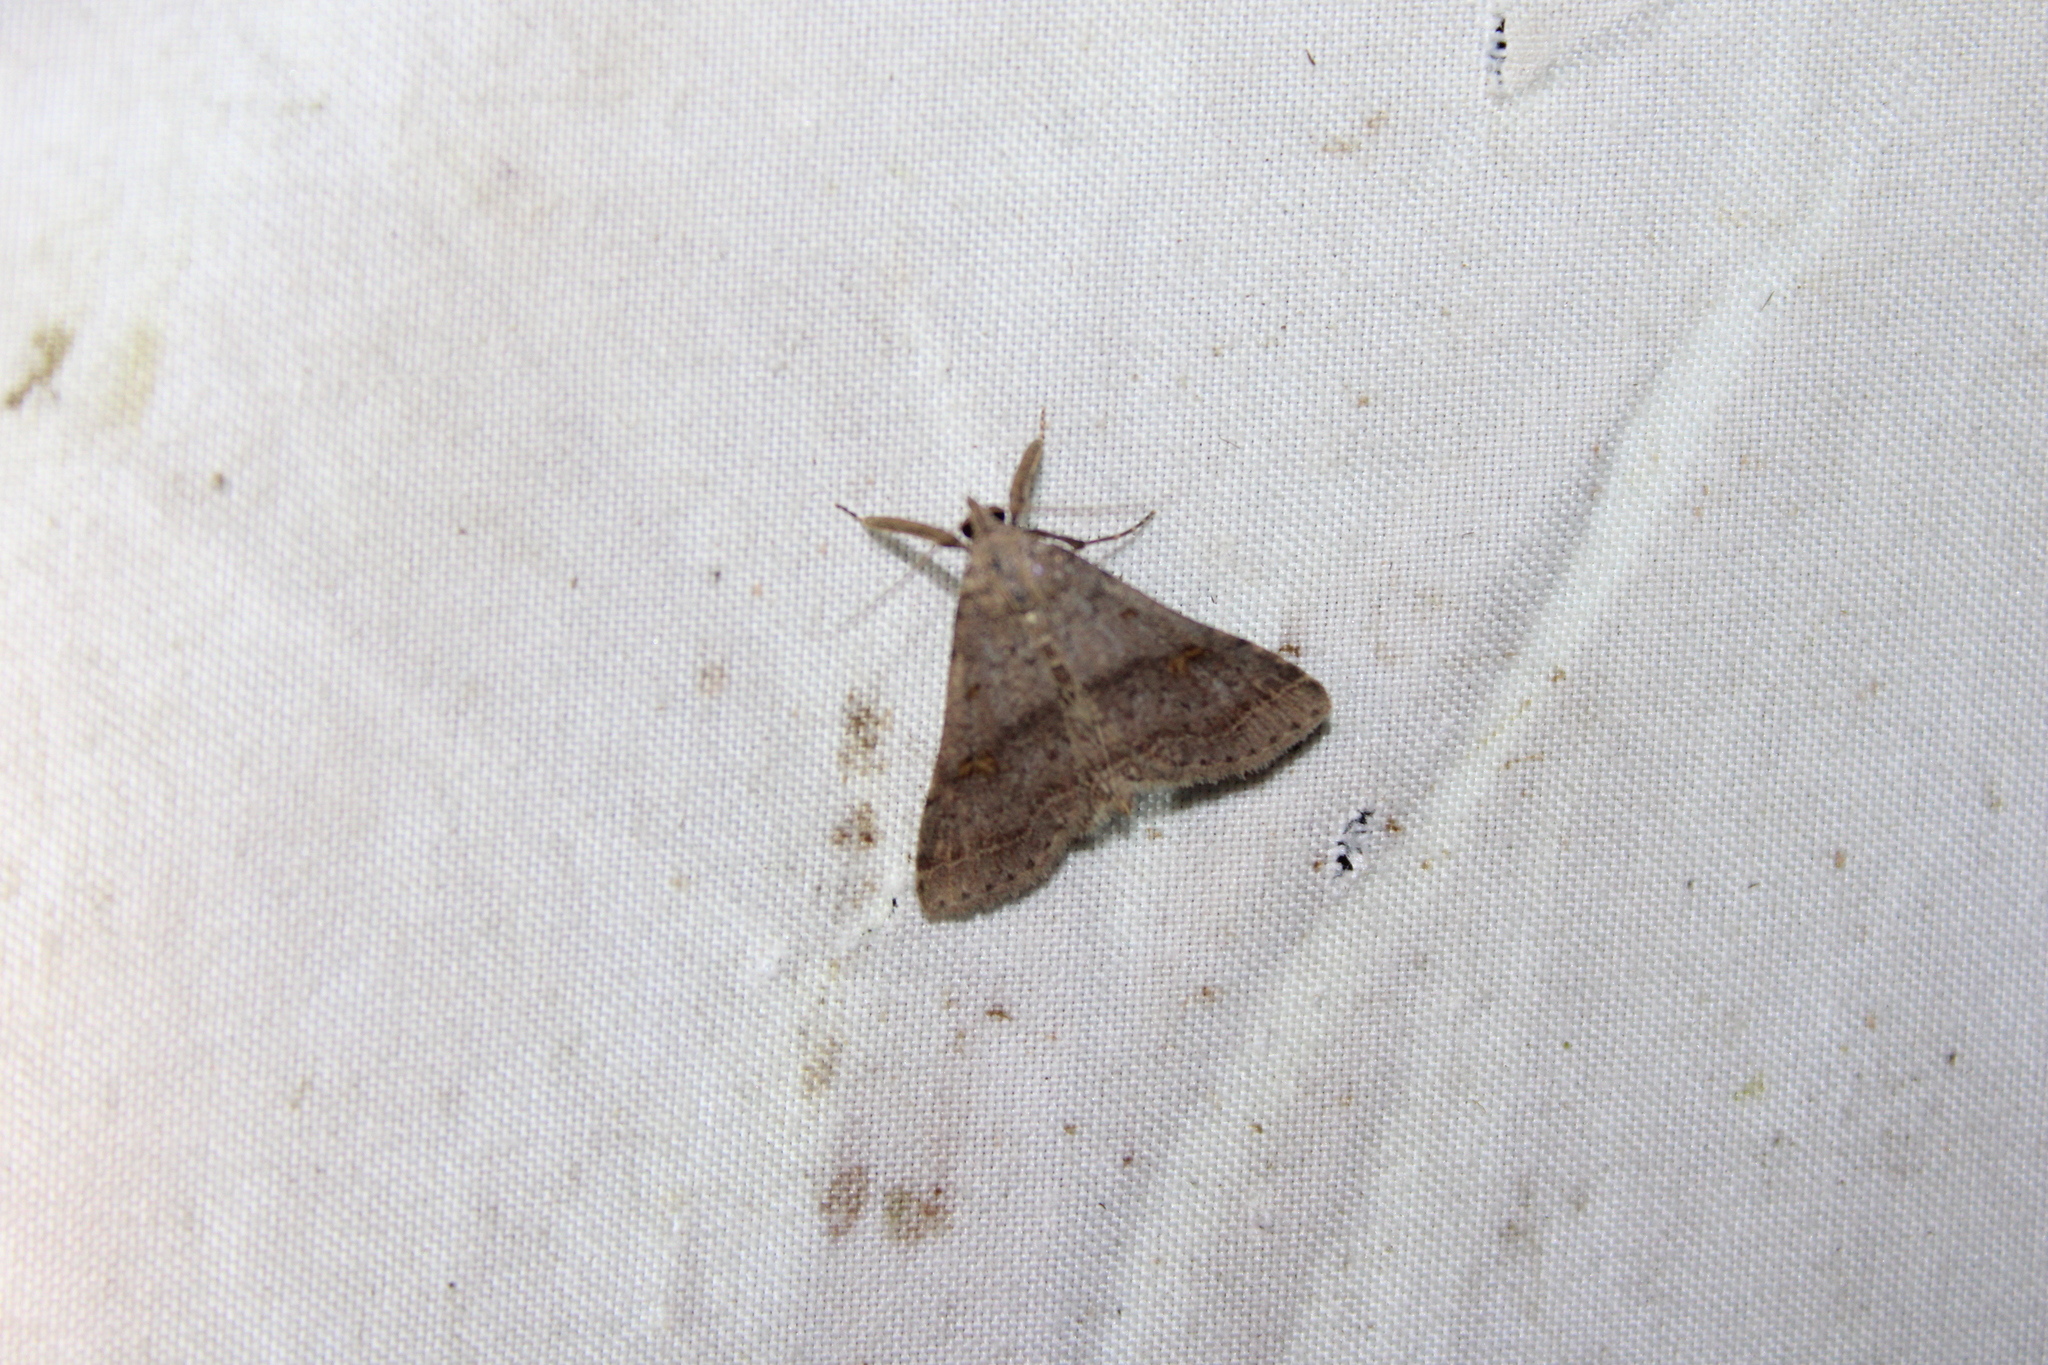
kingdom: Animalia
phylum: Arthropoda
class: Insecta
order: Lepidoptera
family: Erebidae
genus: Bleptina
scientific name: Bleptina caradrinalis
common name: Bent-winged owlet
